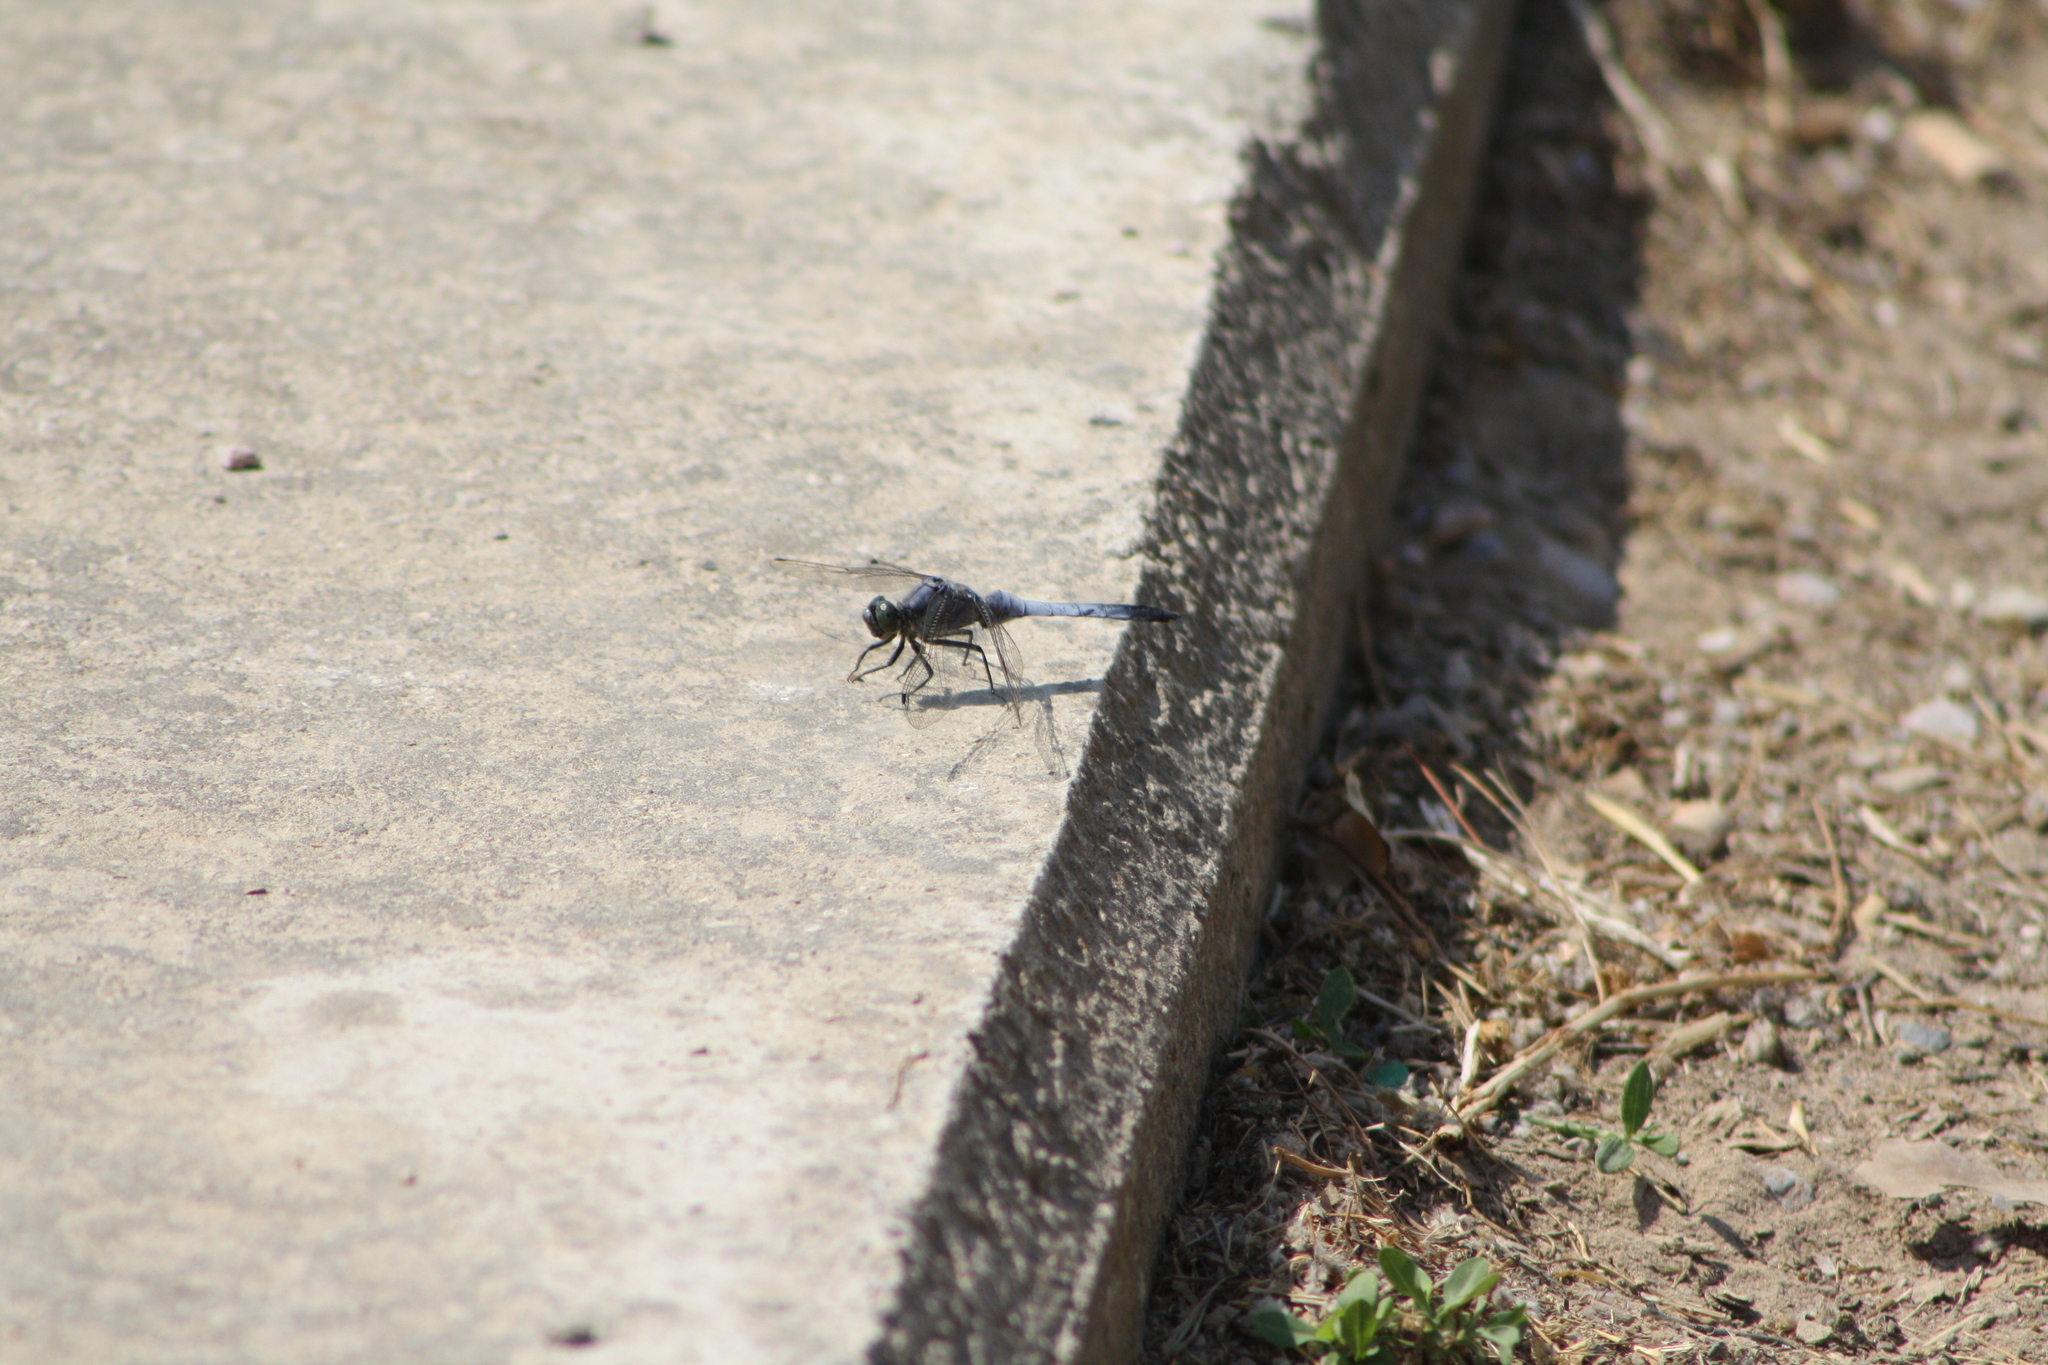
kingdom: Animalia
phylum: Arthropoda
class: Insecta
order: Odonata
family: Libellulidae
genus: Orthetrum
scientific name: Orthetrum cancellatum
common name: Black-tailed skimmer
